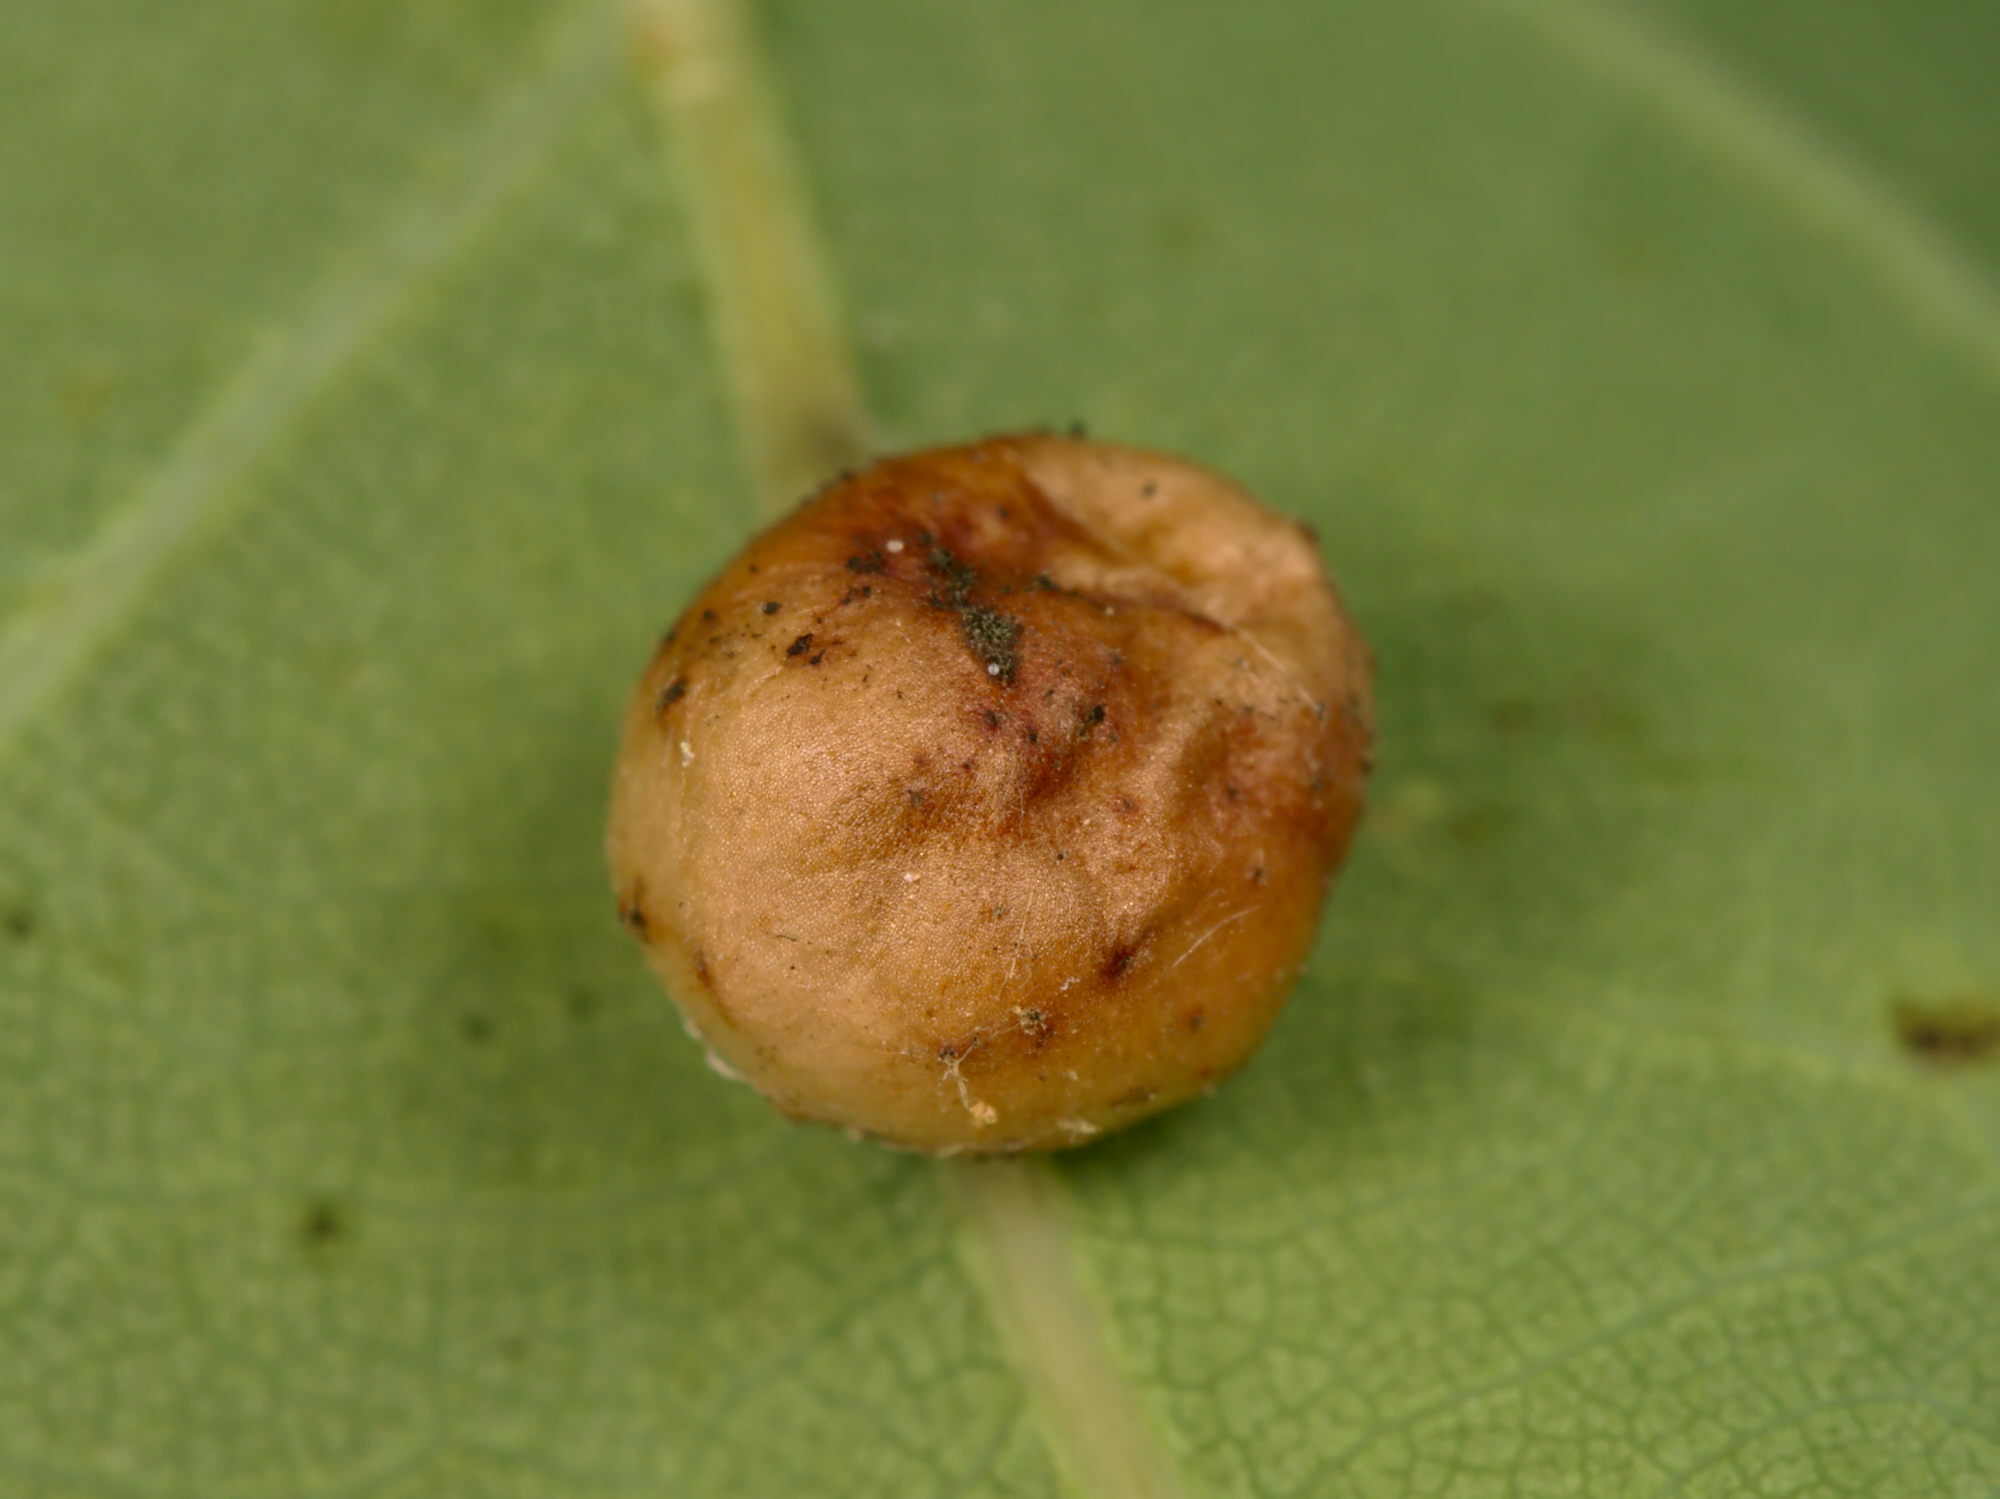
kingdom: Animalia
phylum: Arthropoda
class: Insecta
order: Hymenoptera
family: Cynipidae
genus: Cynips
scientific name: Cynips divisa
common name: Red currant gall
